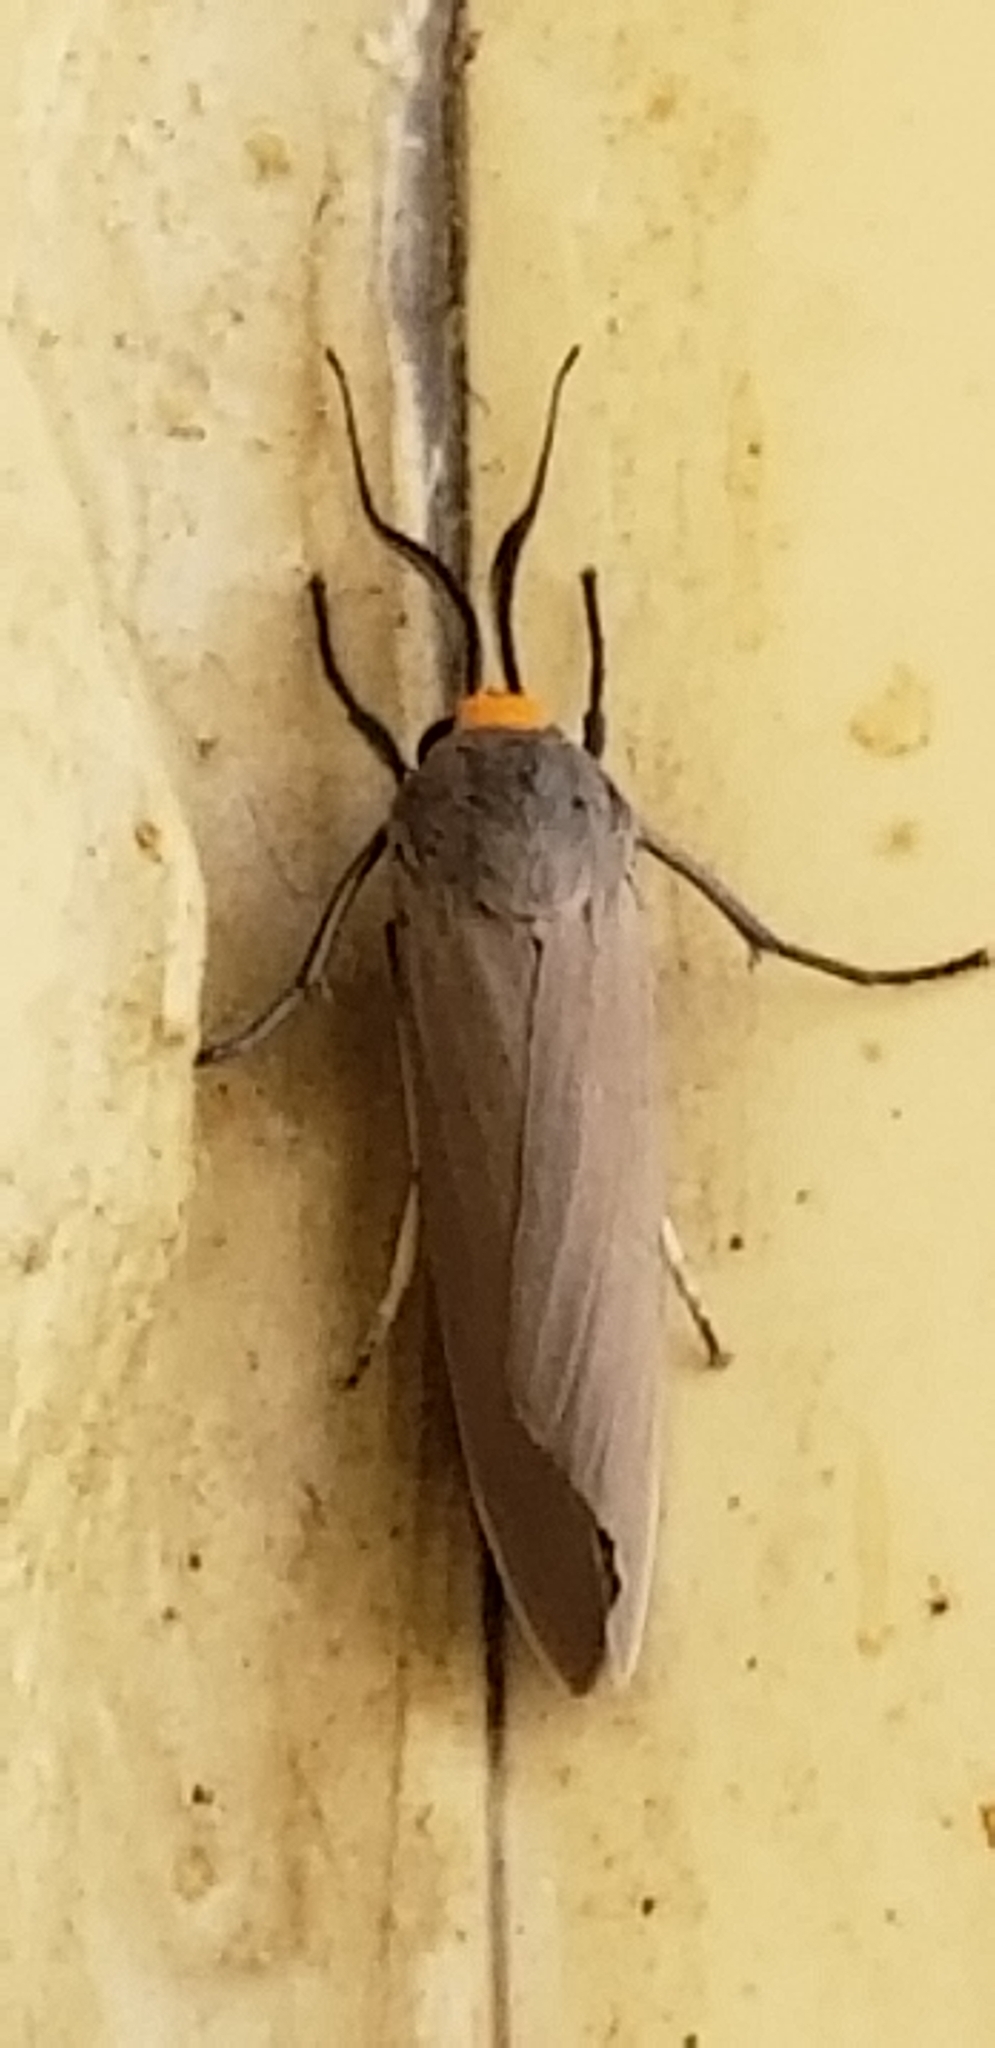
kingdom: Animalia
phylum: Arthropoda
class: Insecta
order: Lepidoptera
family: Erebidae
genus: Lymire
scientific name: Lymire edwardsii
